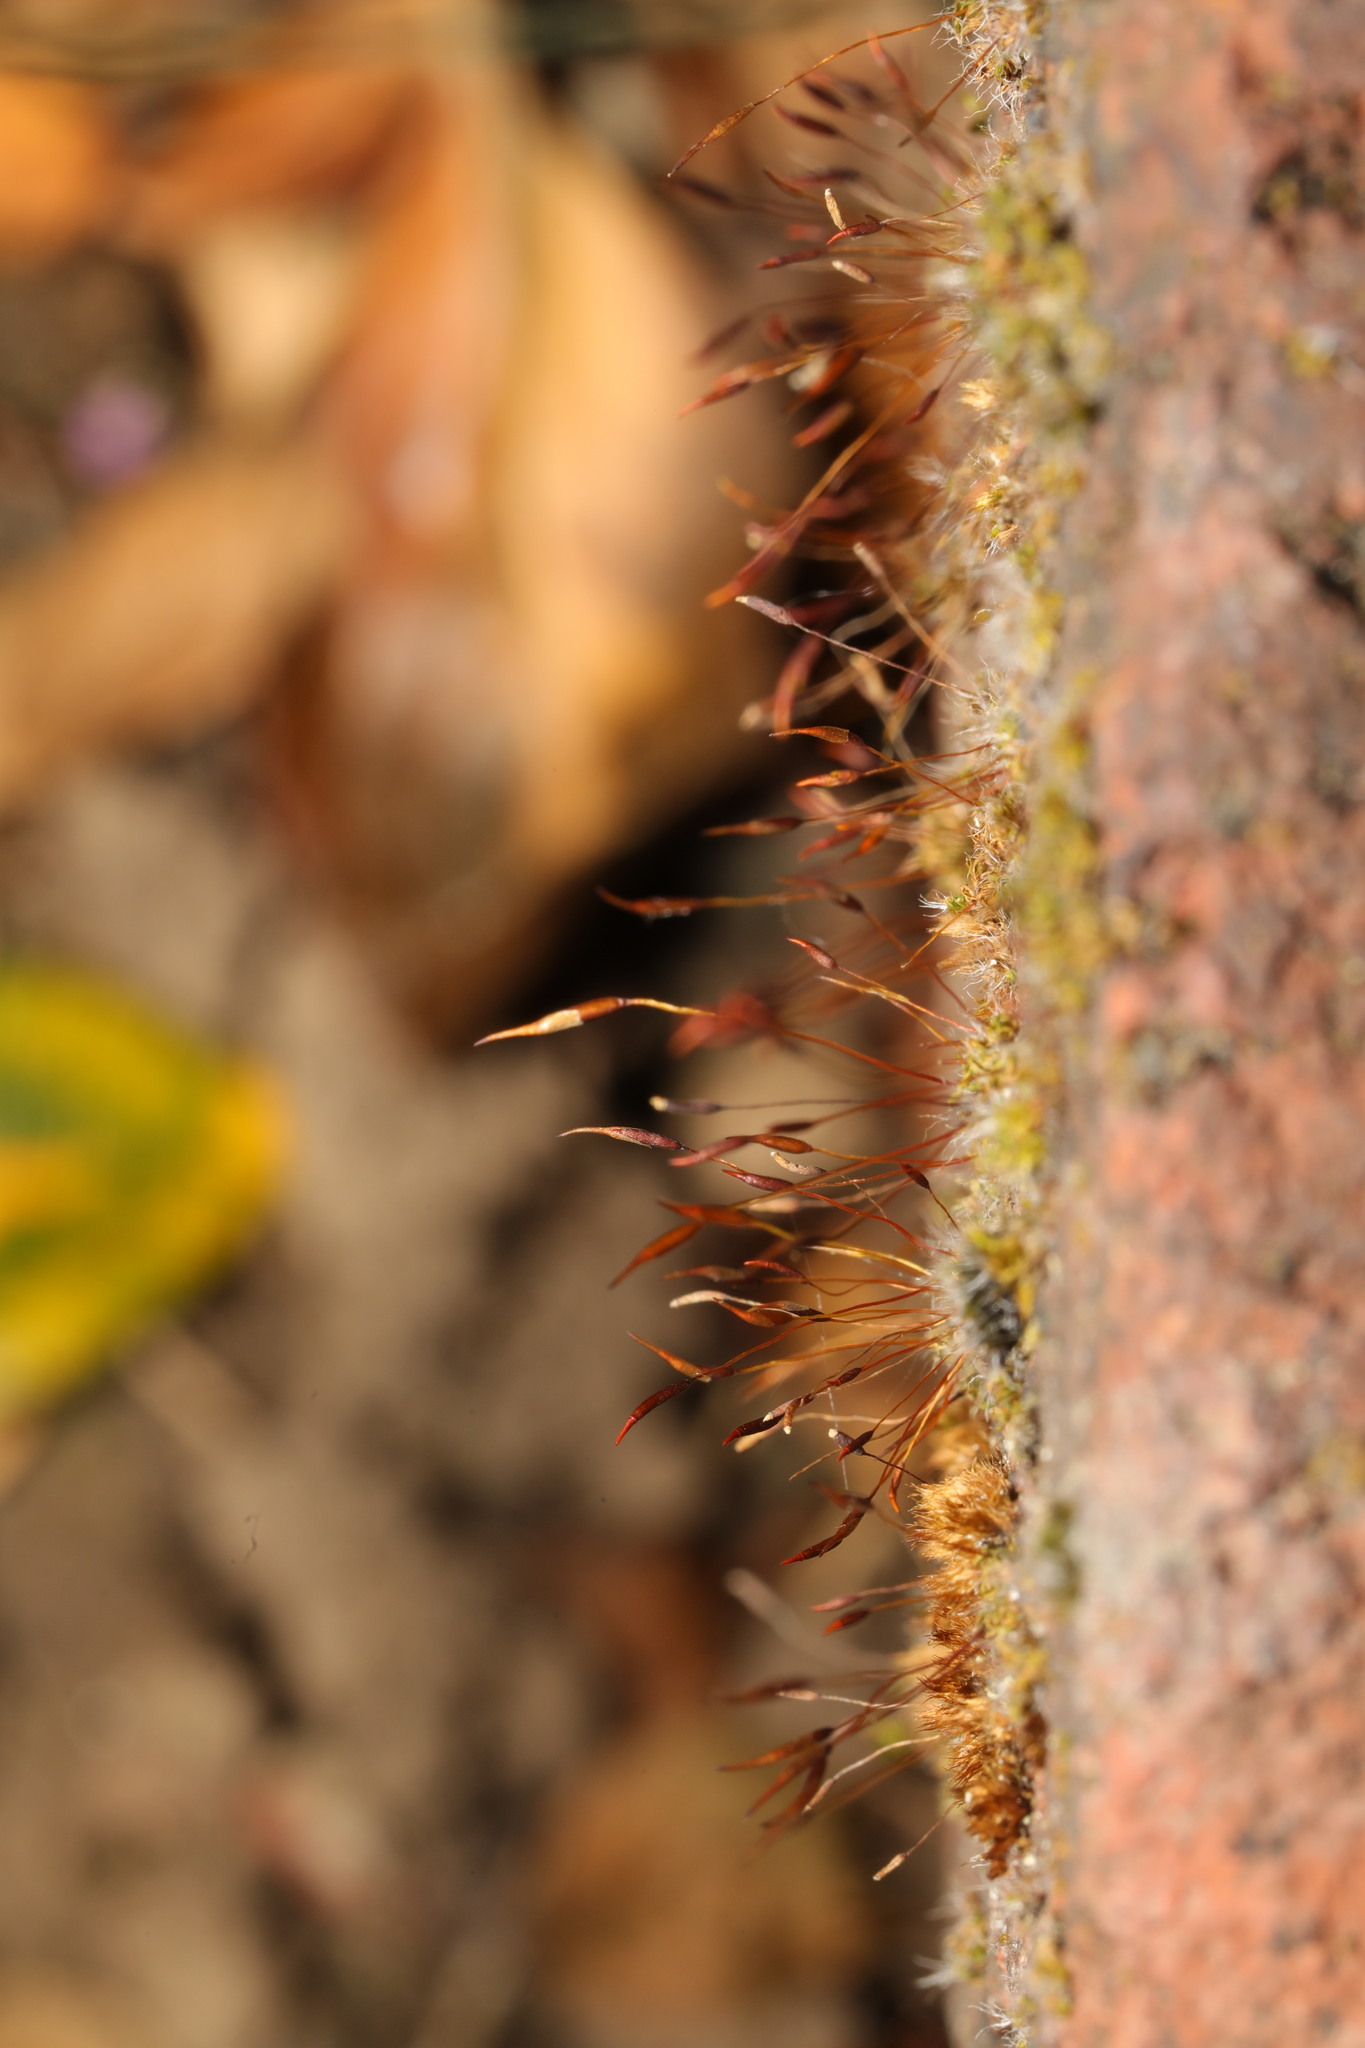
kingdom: Plantae
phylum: Bryophyta
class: Bryopsida
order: Pottiales
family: Pottiaceae
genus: Tortula
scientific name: Tortula muralis
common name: Wall screw-moss
